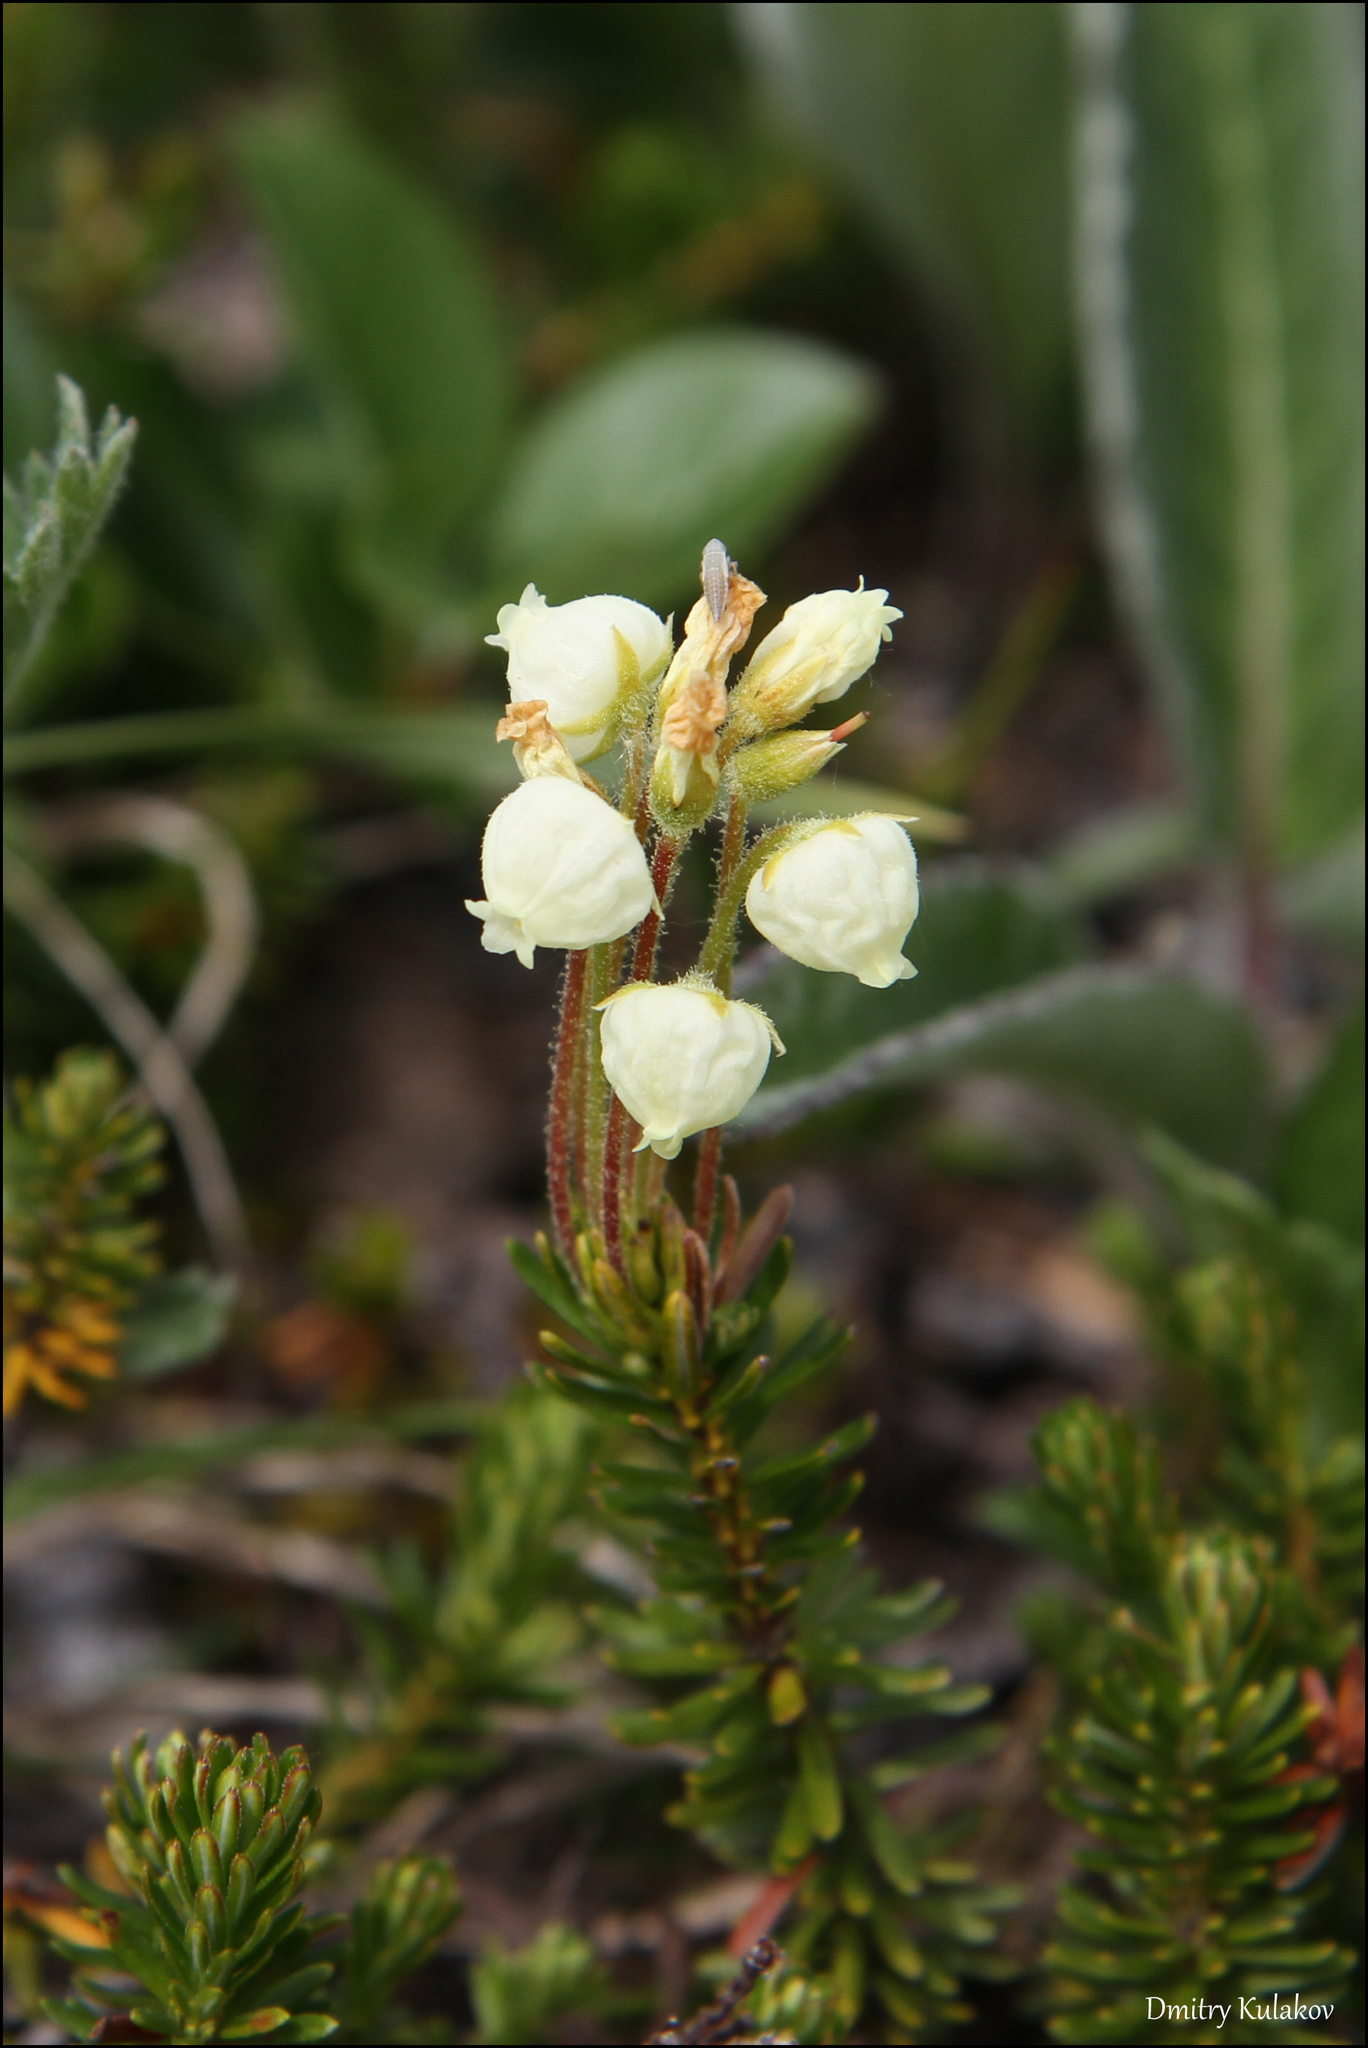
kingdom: Plantae
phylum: Tracheophyta
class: Magnoliopsida
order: Ericales
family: Ericaceae
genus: Phyllodoce
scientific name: Phyllodoce aleutica
